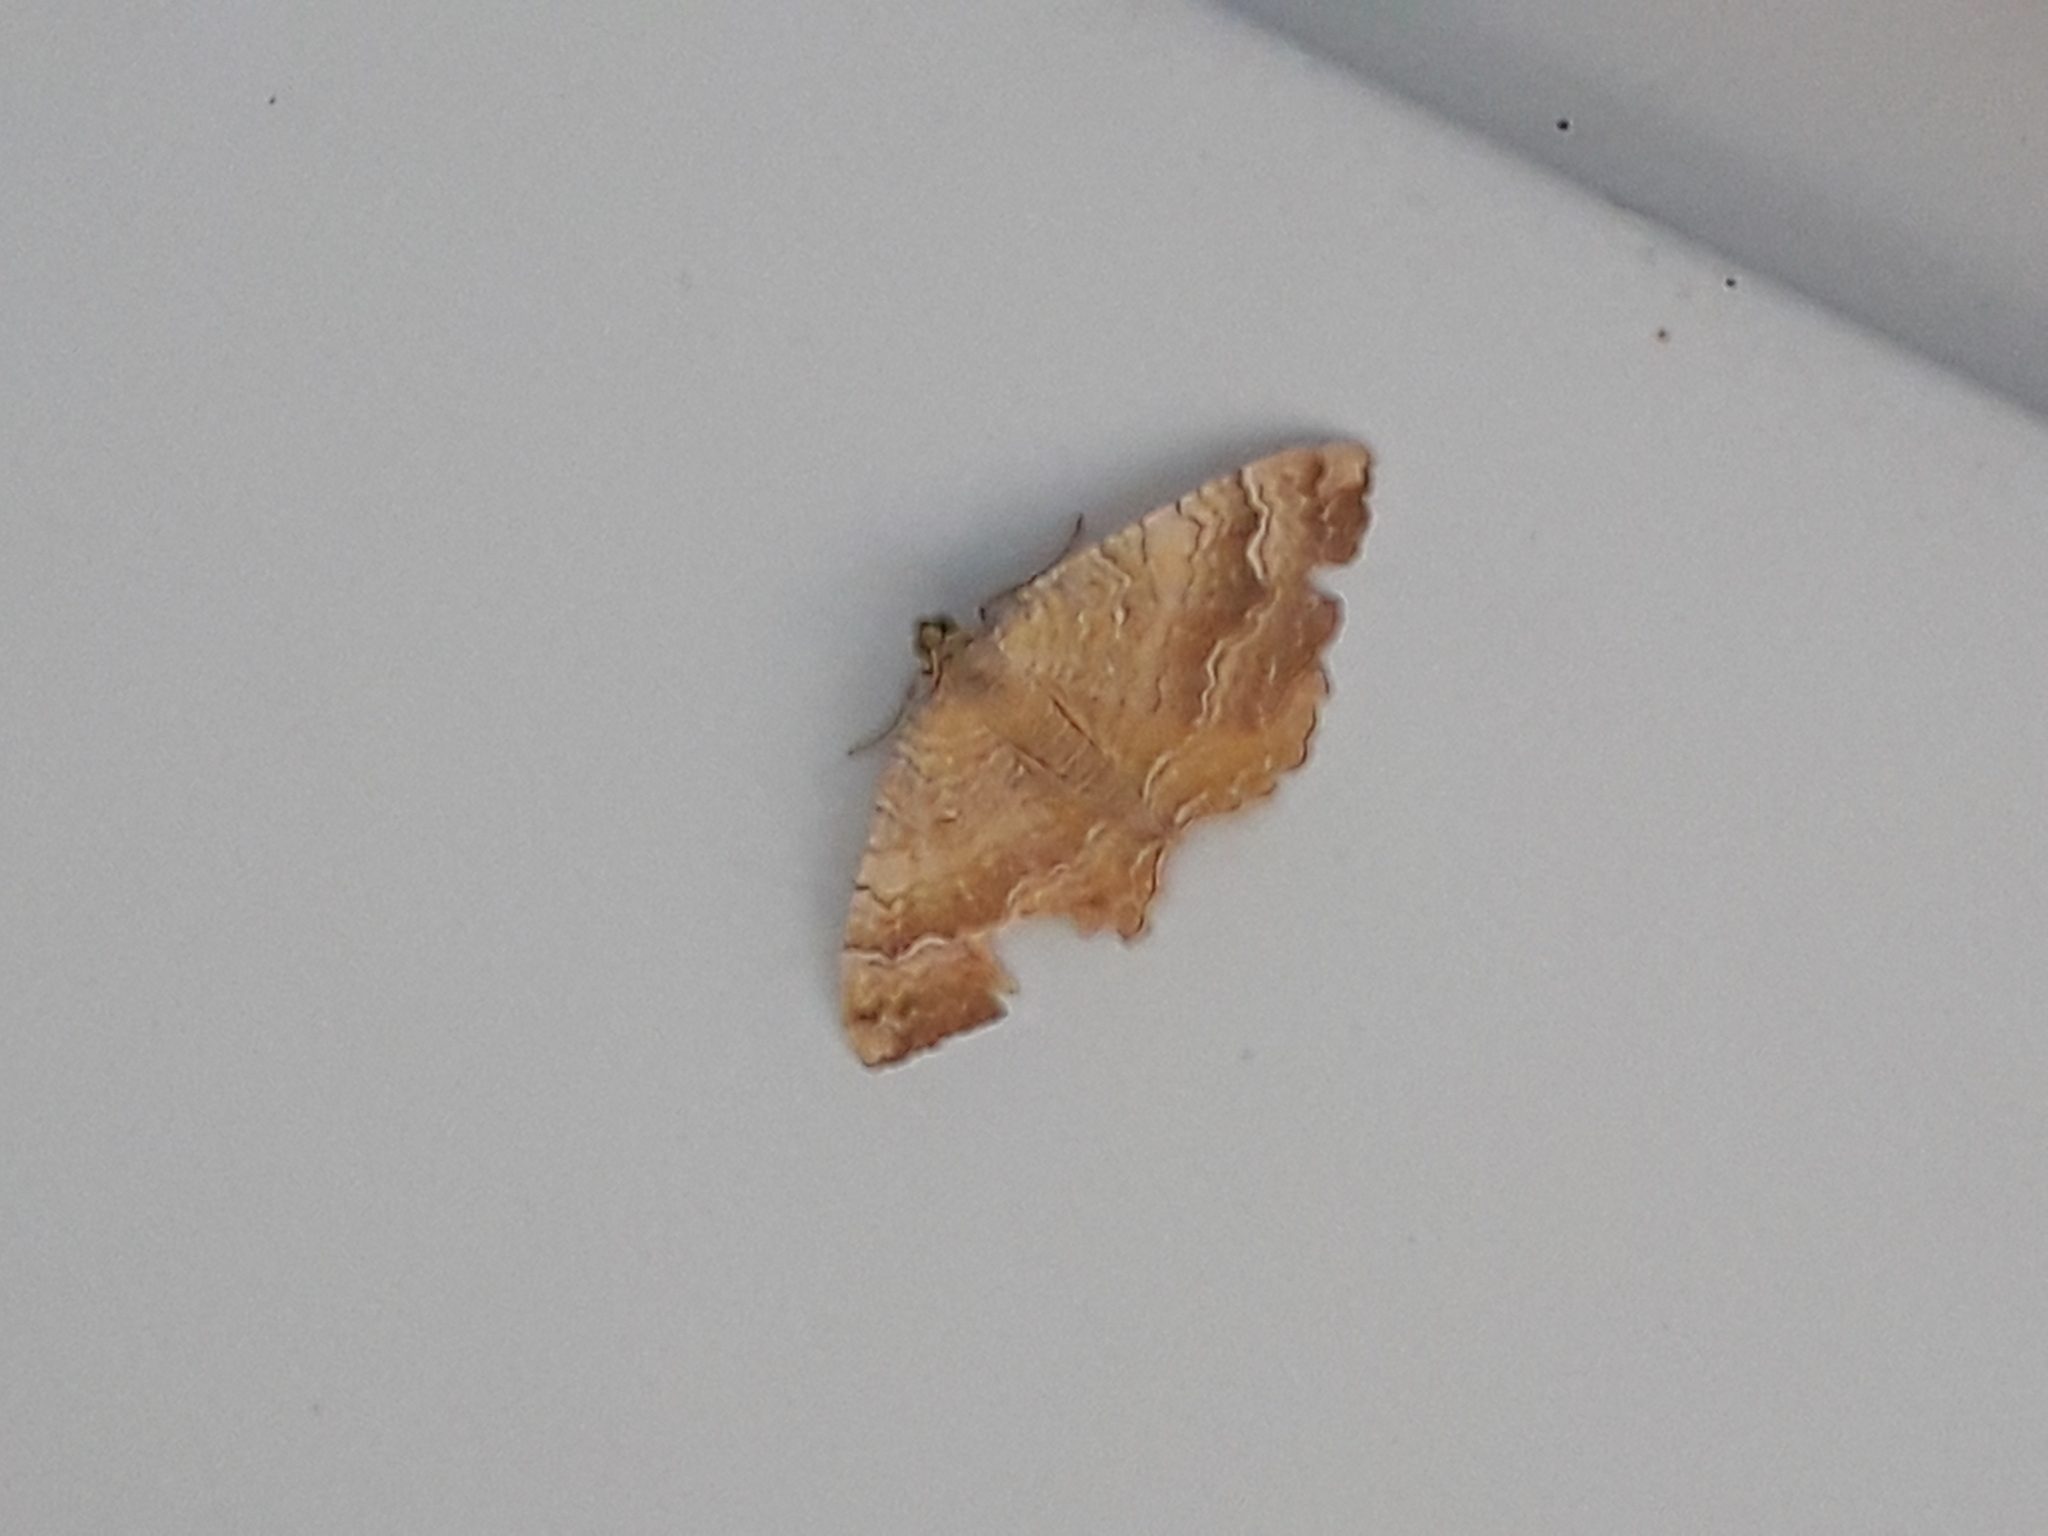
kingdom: Animalia
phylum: Arthropoda
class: Insecta
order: Lepidoptera
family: Geometridae
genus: Camptogramma
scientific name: Camptogramma bilineata
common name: Yellow shell
